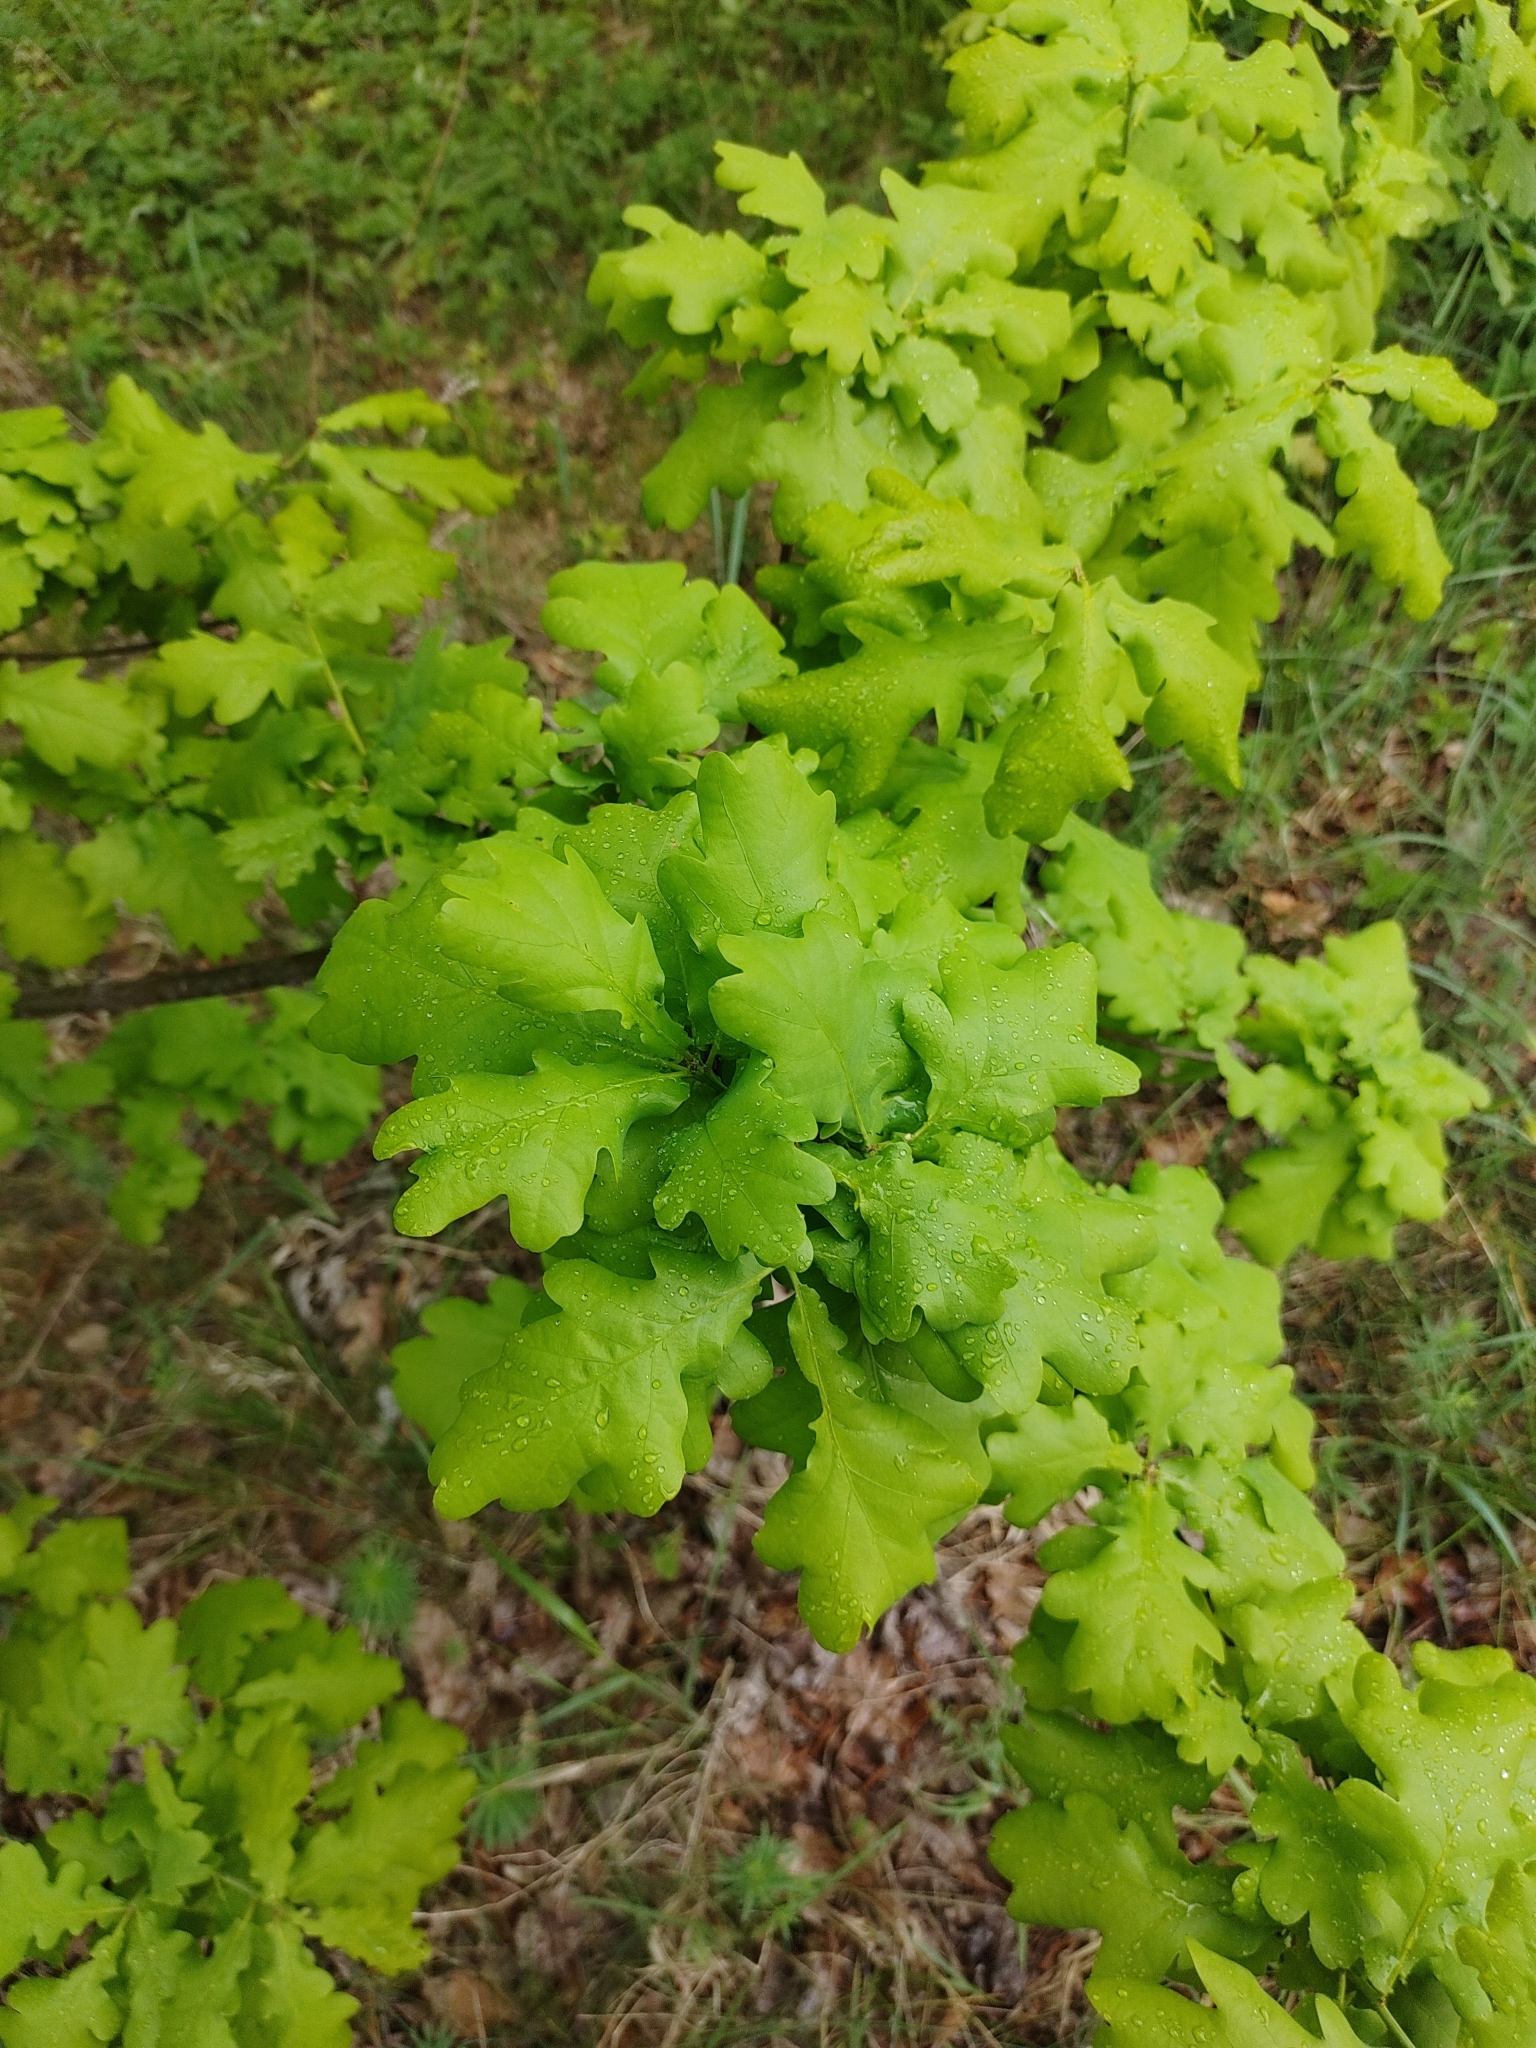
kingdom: Plantae
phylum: Tracheophyta
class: Magnoliopsida
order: Fagales
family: Fagaceae
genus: Quercus
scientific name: Quercus robur
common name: Pedunculate oak
